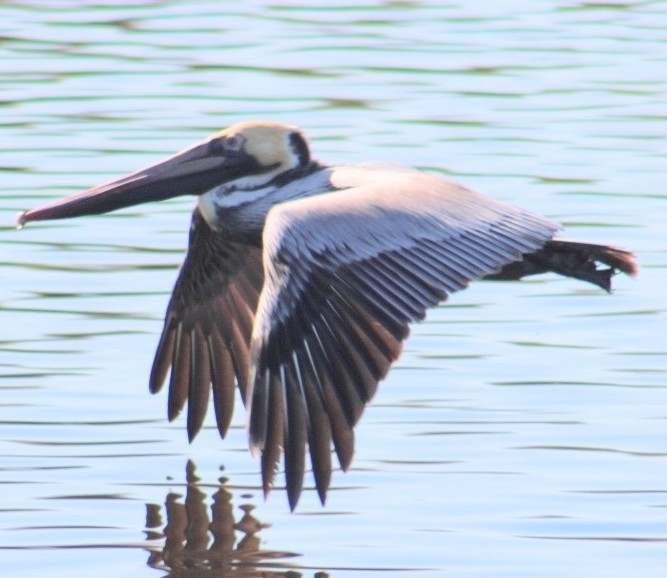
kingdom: Animalia
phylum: Chordata
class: Aves
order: Pelecaniformes
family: Pelecanidae
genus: Pelecanus
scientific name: Pelecanus occidentalis
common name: Brown pelican
